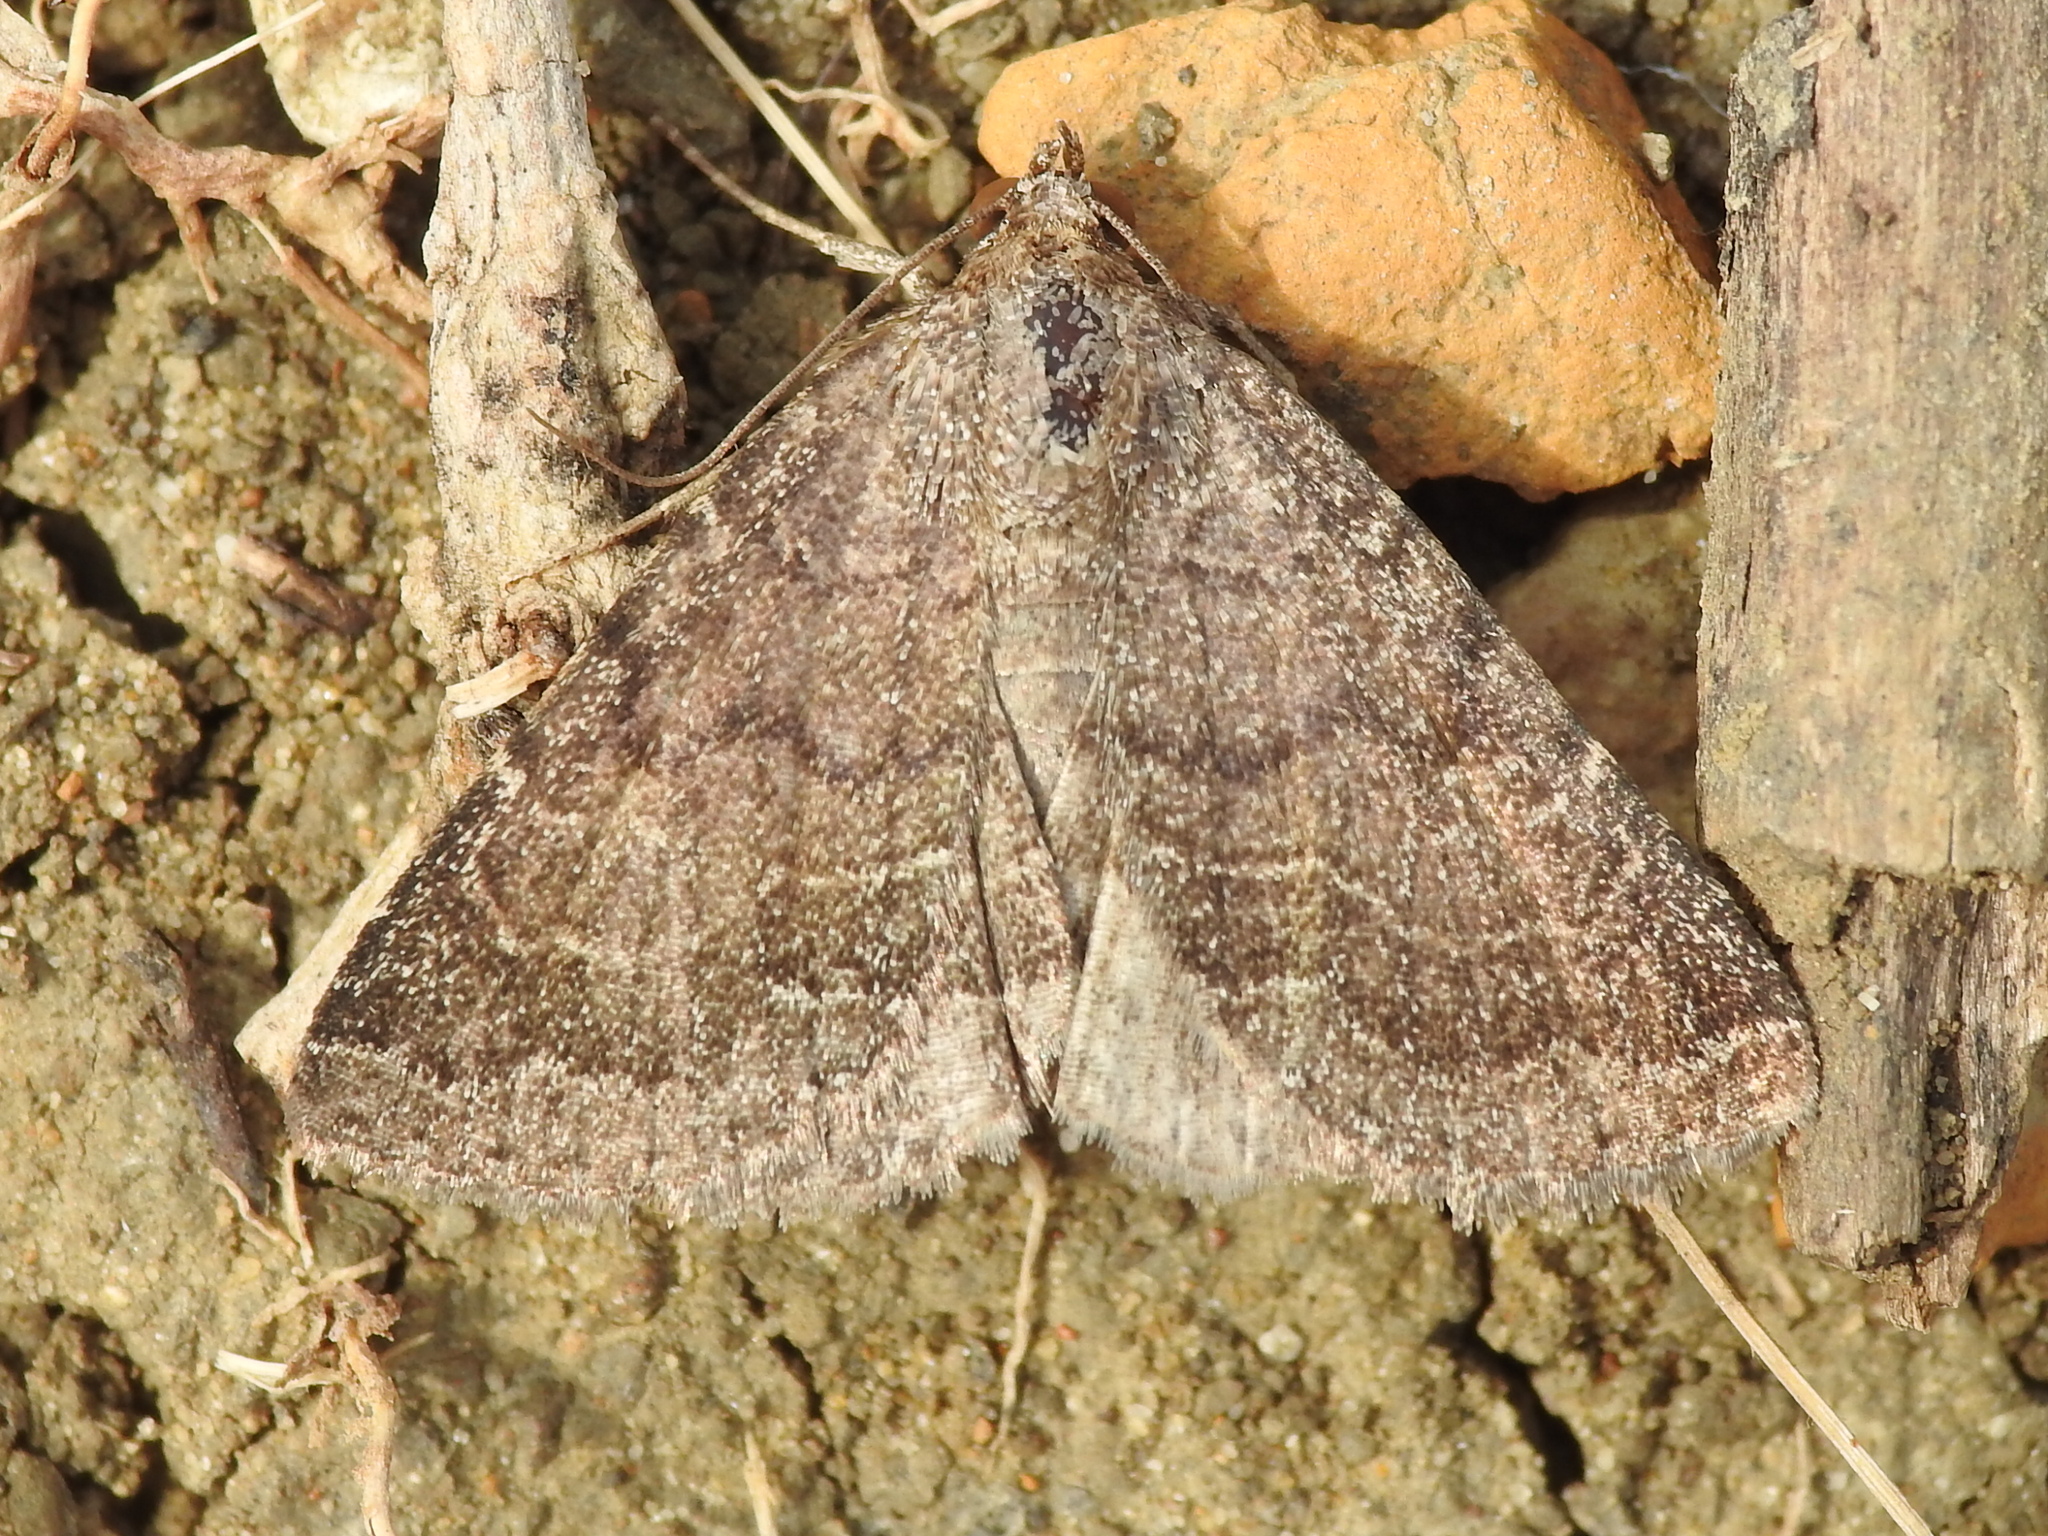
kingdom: Animalia
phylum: Arthropoda
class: Insecta
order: Lepidoptera
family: Erebidae
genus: Matigramma
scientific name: Matigramma pulverilinea
